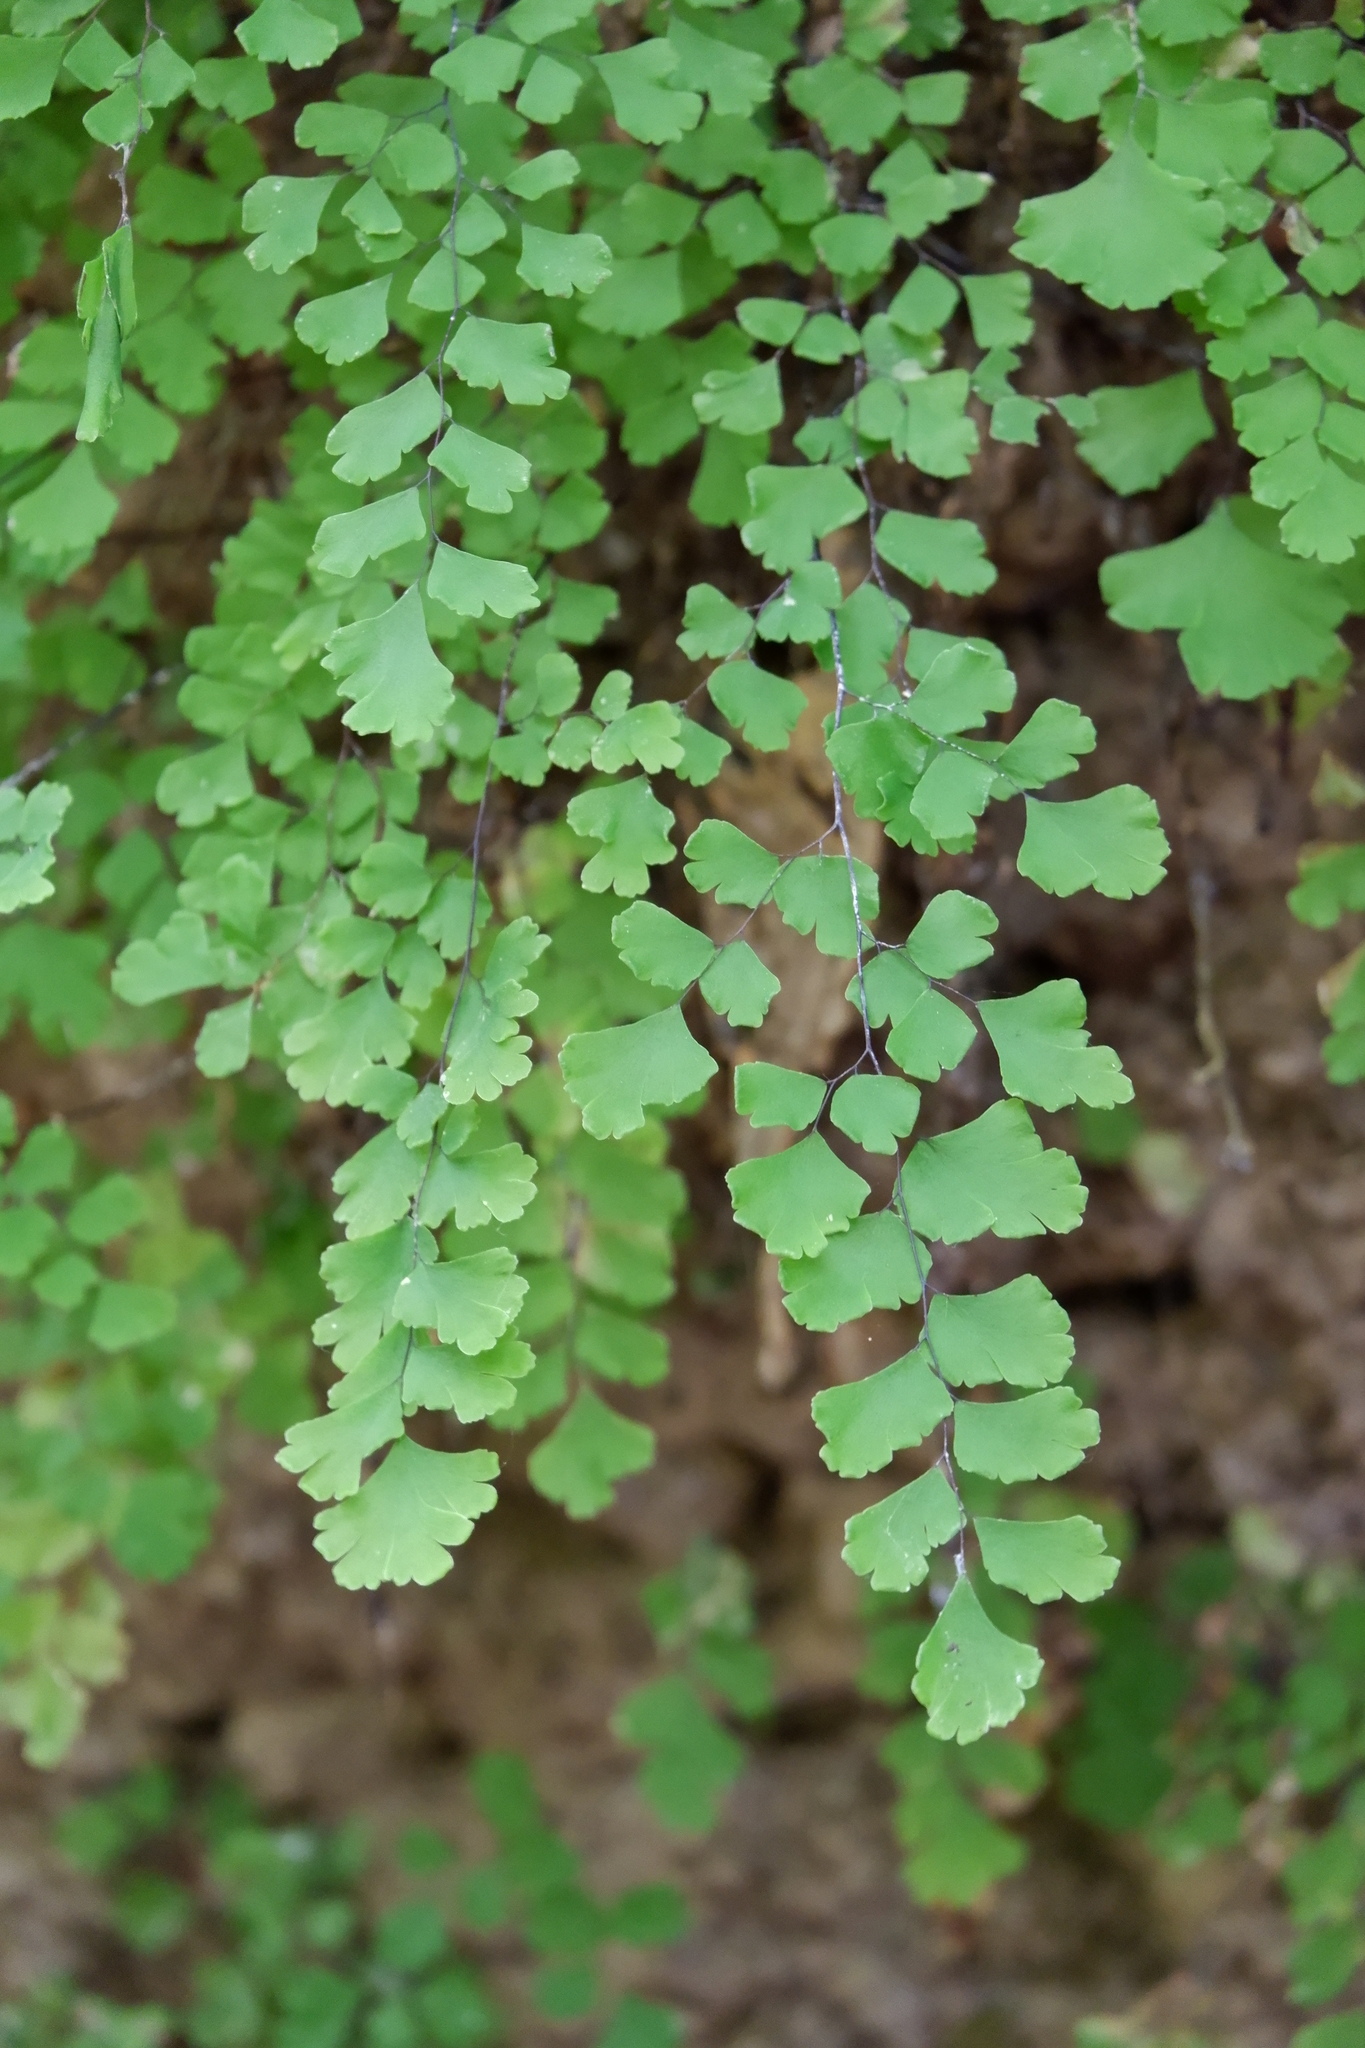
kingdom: Plantae
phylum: Tracheophyta
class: Polypodiopsida
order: Polypodiales
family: Pteridaceae
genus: Adiantum
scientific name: Adiantum capillus-veneris
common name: Maidenhair fern
